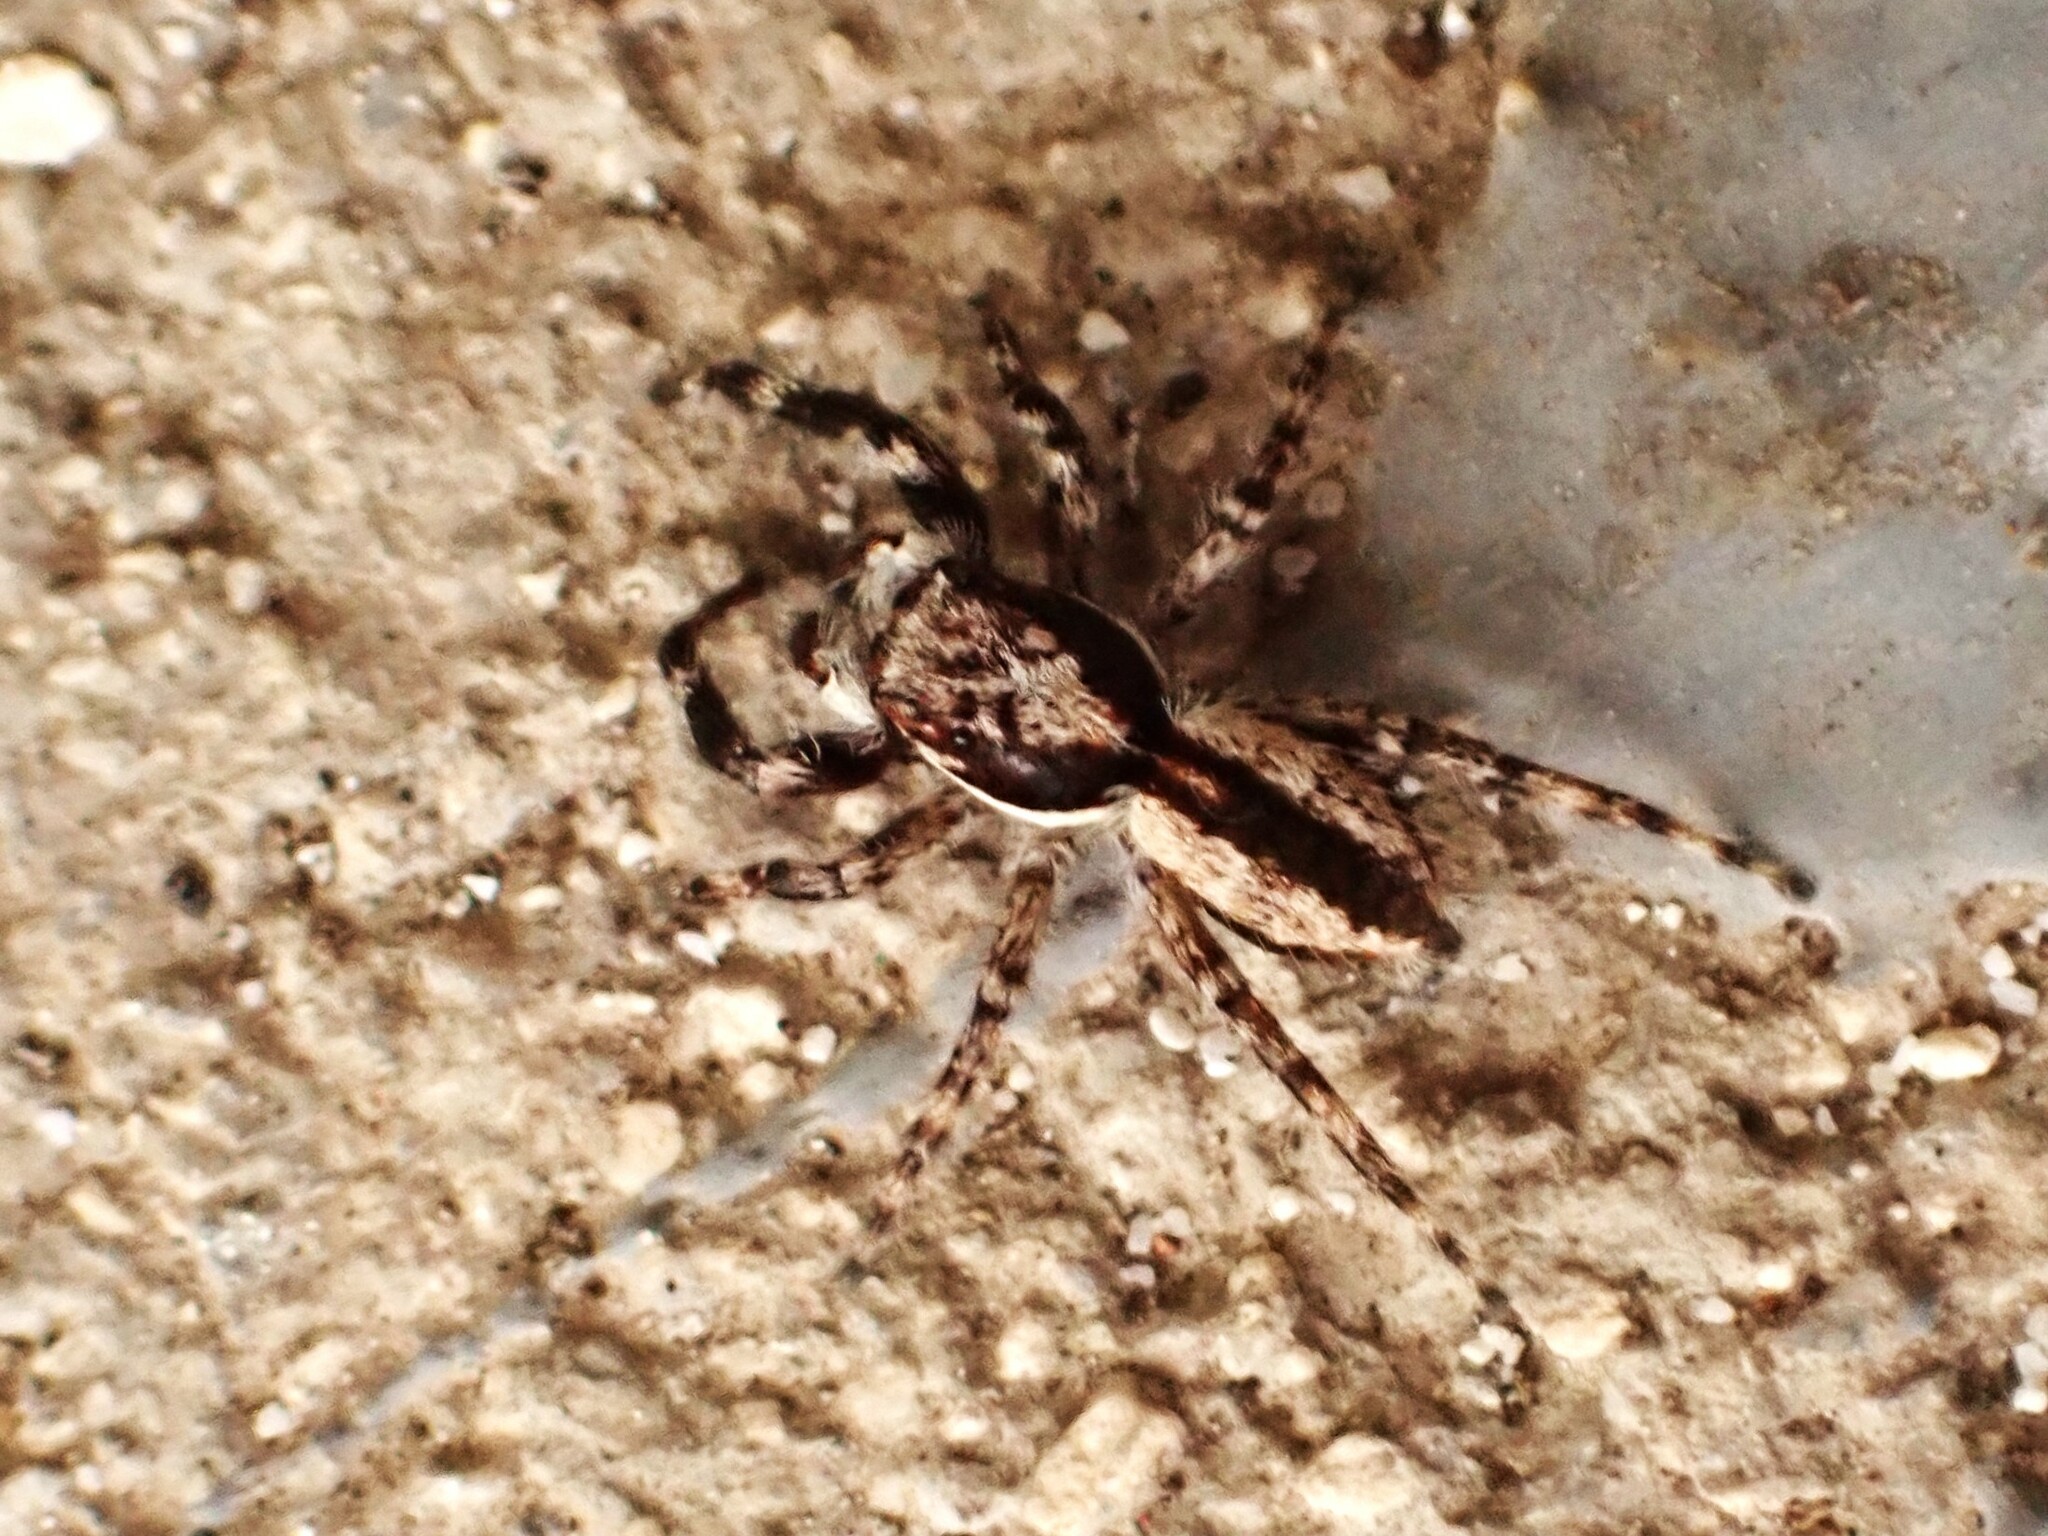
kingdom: Animalia
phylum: Arthropoda
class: Arachnida
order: Araneae
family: Salticidae
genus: Menemerus
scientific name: Menemerus bivittatus
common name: Gray wall jumper
